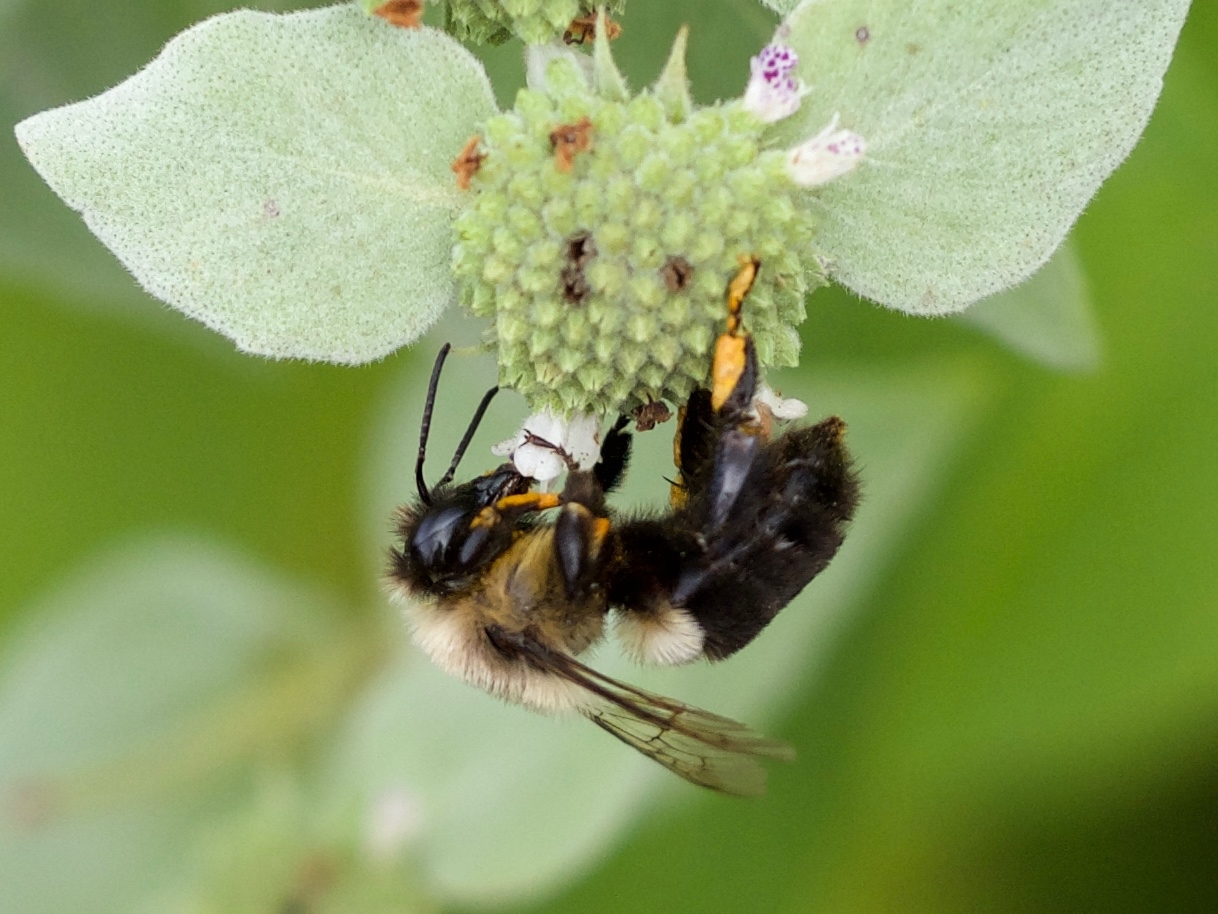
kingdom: Animalia
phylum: Arthropoda
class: Insecta
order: Hymenoptera
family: Apidae
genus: Bombus
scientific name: Bombus impatiens
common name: Common eastern bumble bee
